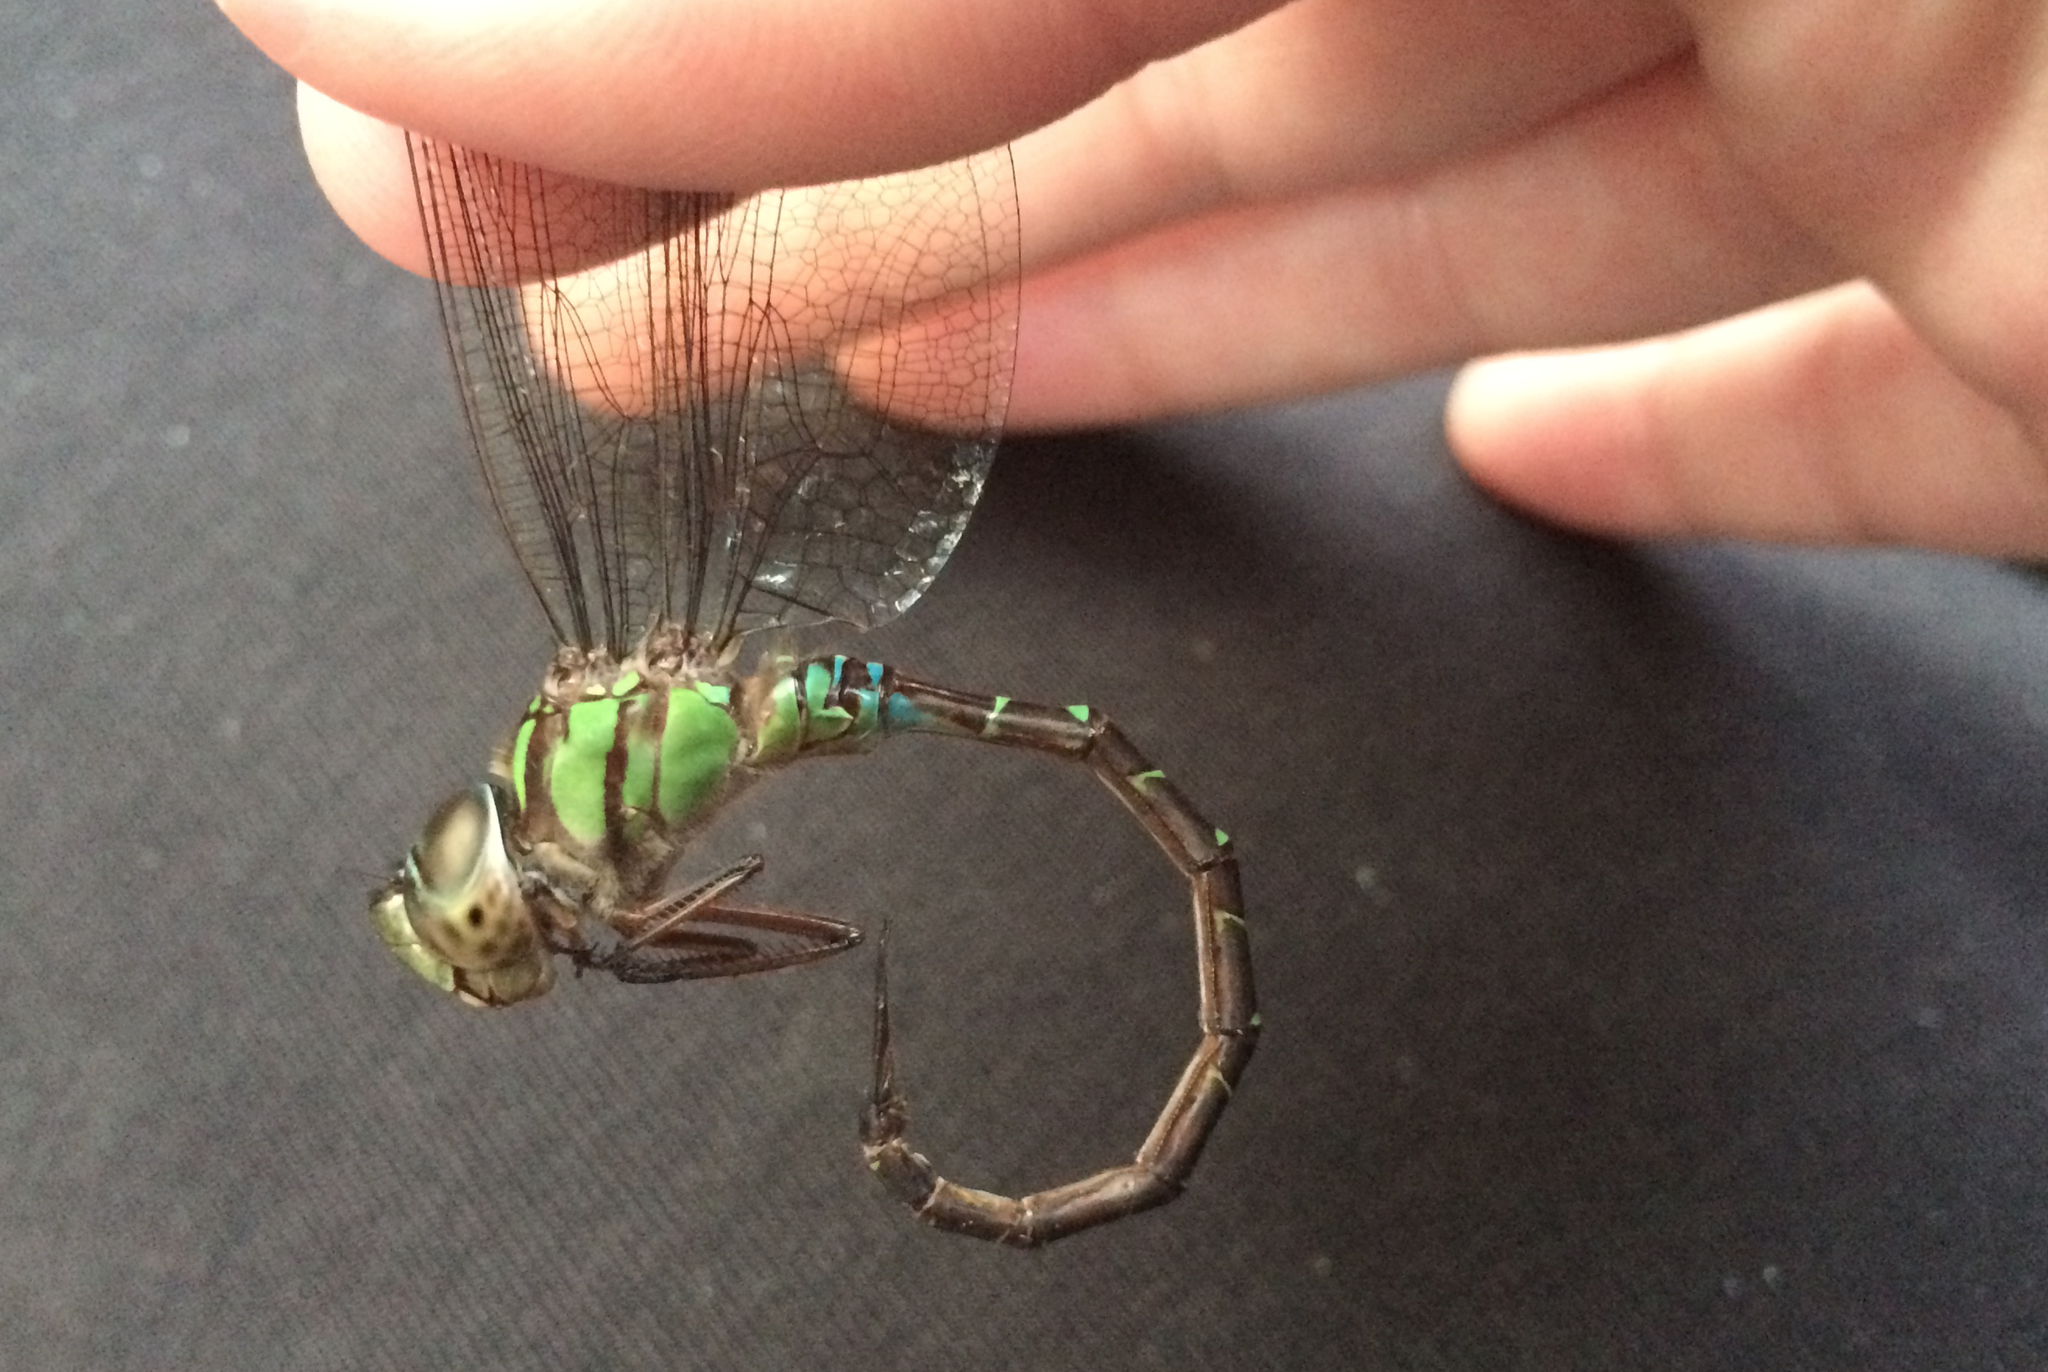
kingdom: Animalia
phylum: Arthropoda
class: Insecta
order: Odonata
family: Aeshnidae
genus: Triacanthagyna
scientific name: Triacanthagyna trifida
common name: Phantom darner
